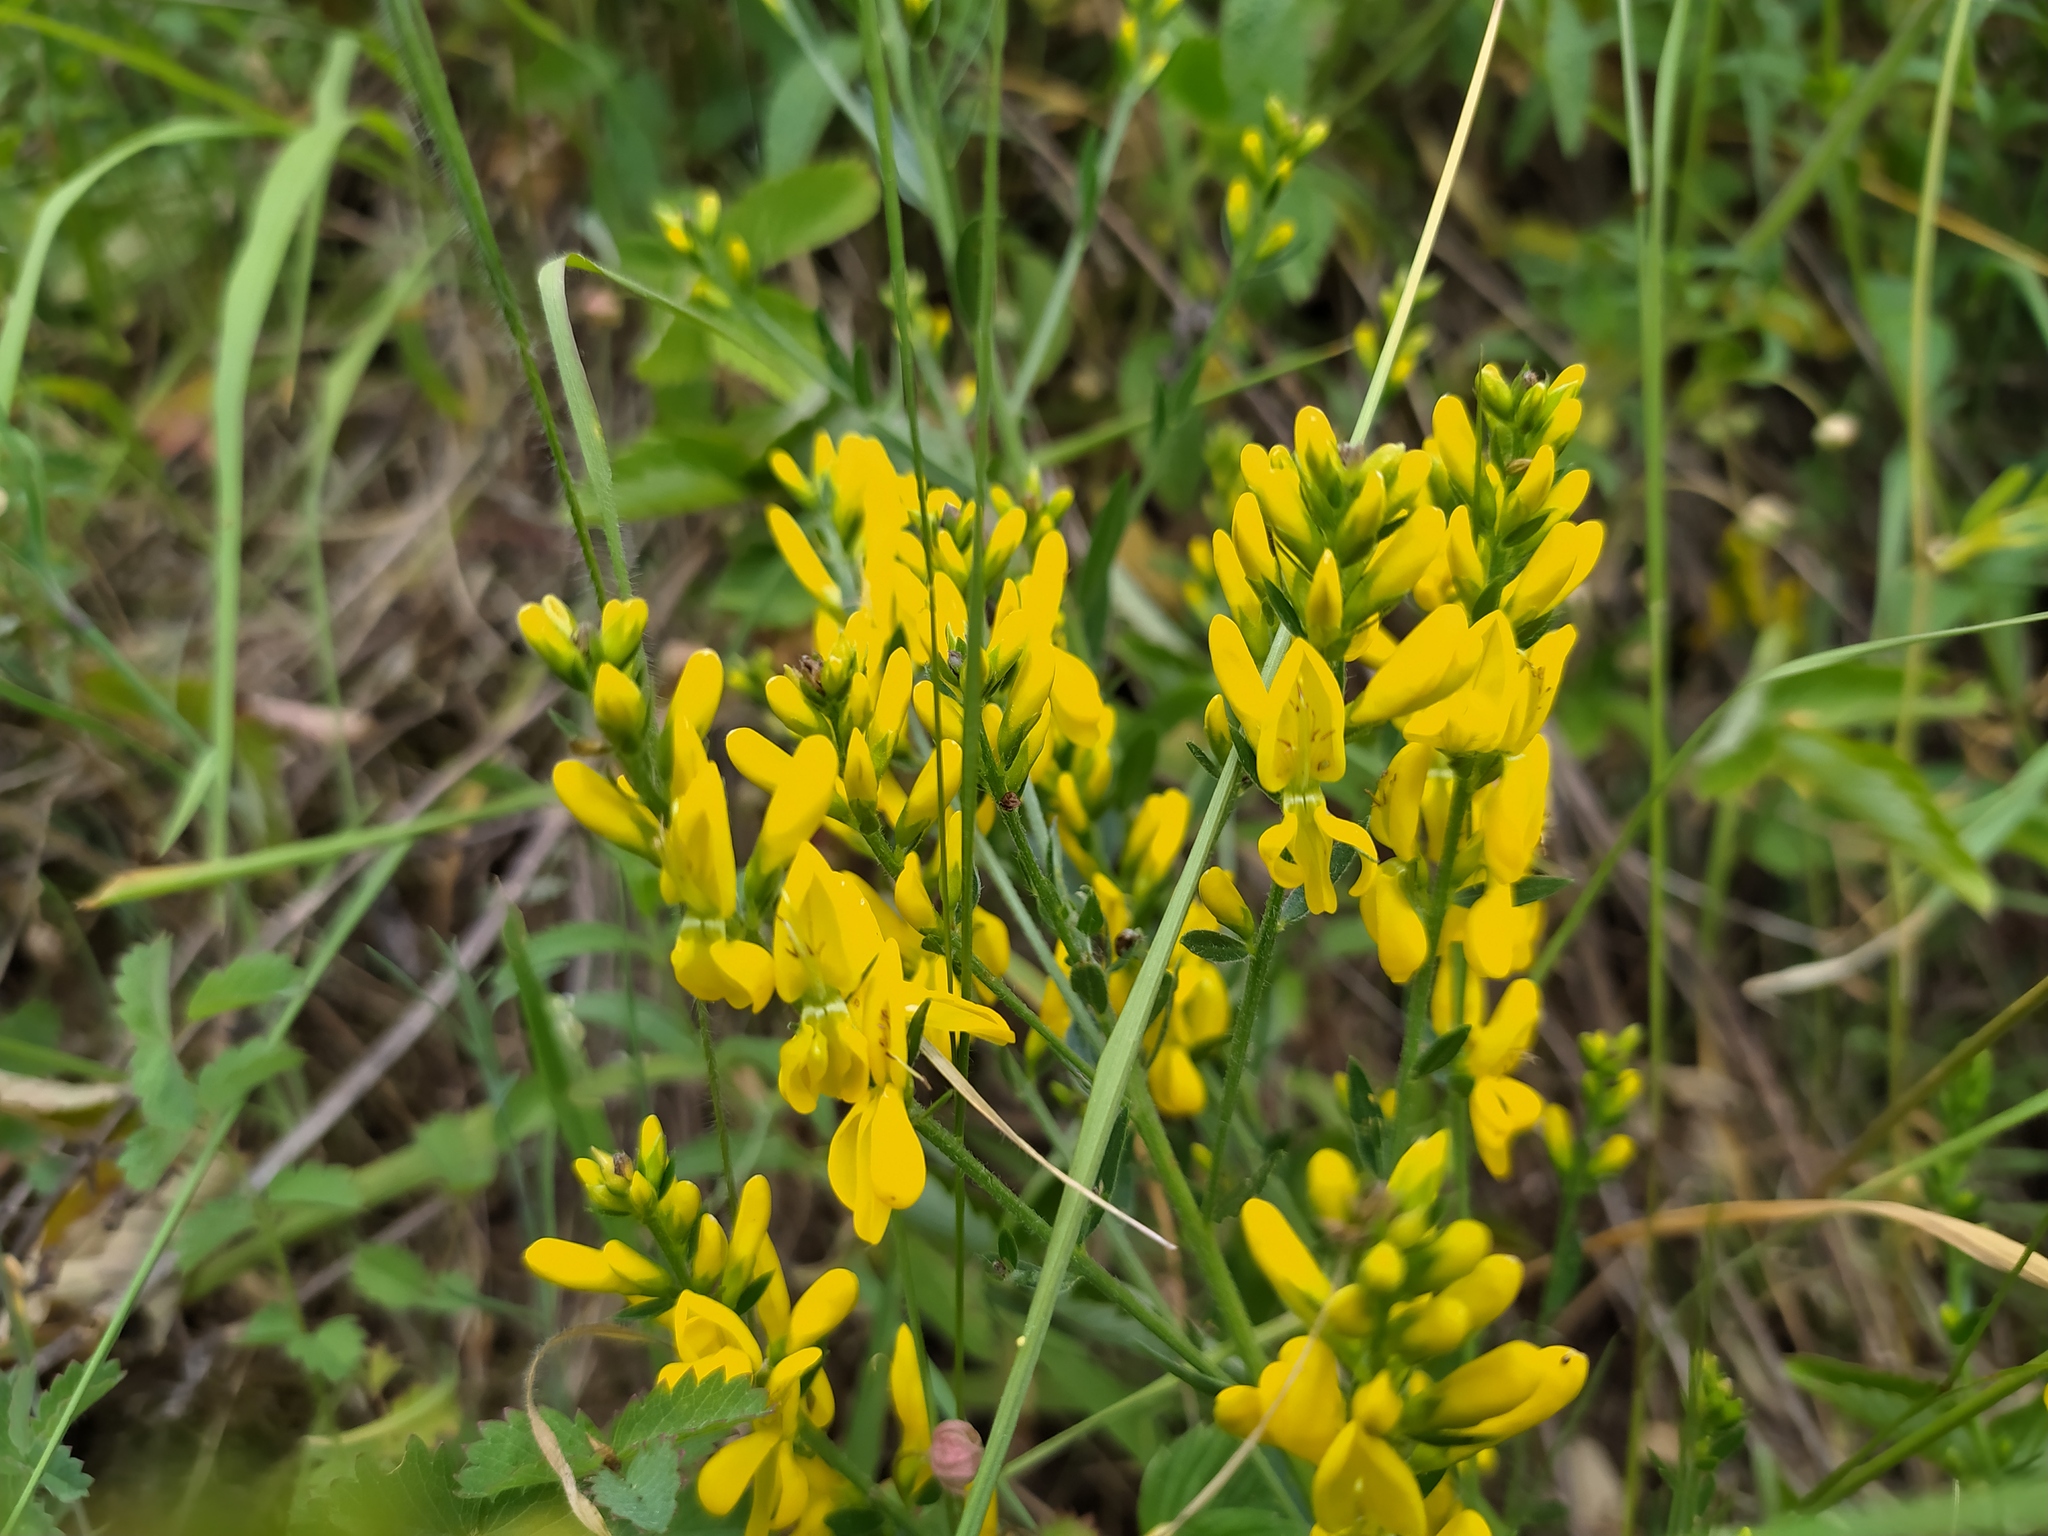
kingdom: Plantae
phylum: Tracheophyta
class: Magnoliopsida
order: Fabales
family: Fabaceae
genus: Genista
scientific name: Genista tinctoria
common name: Dyer's greenweed
